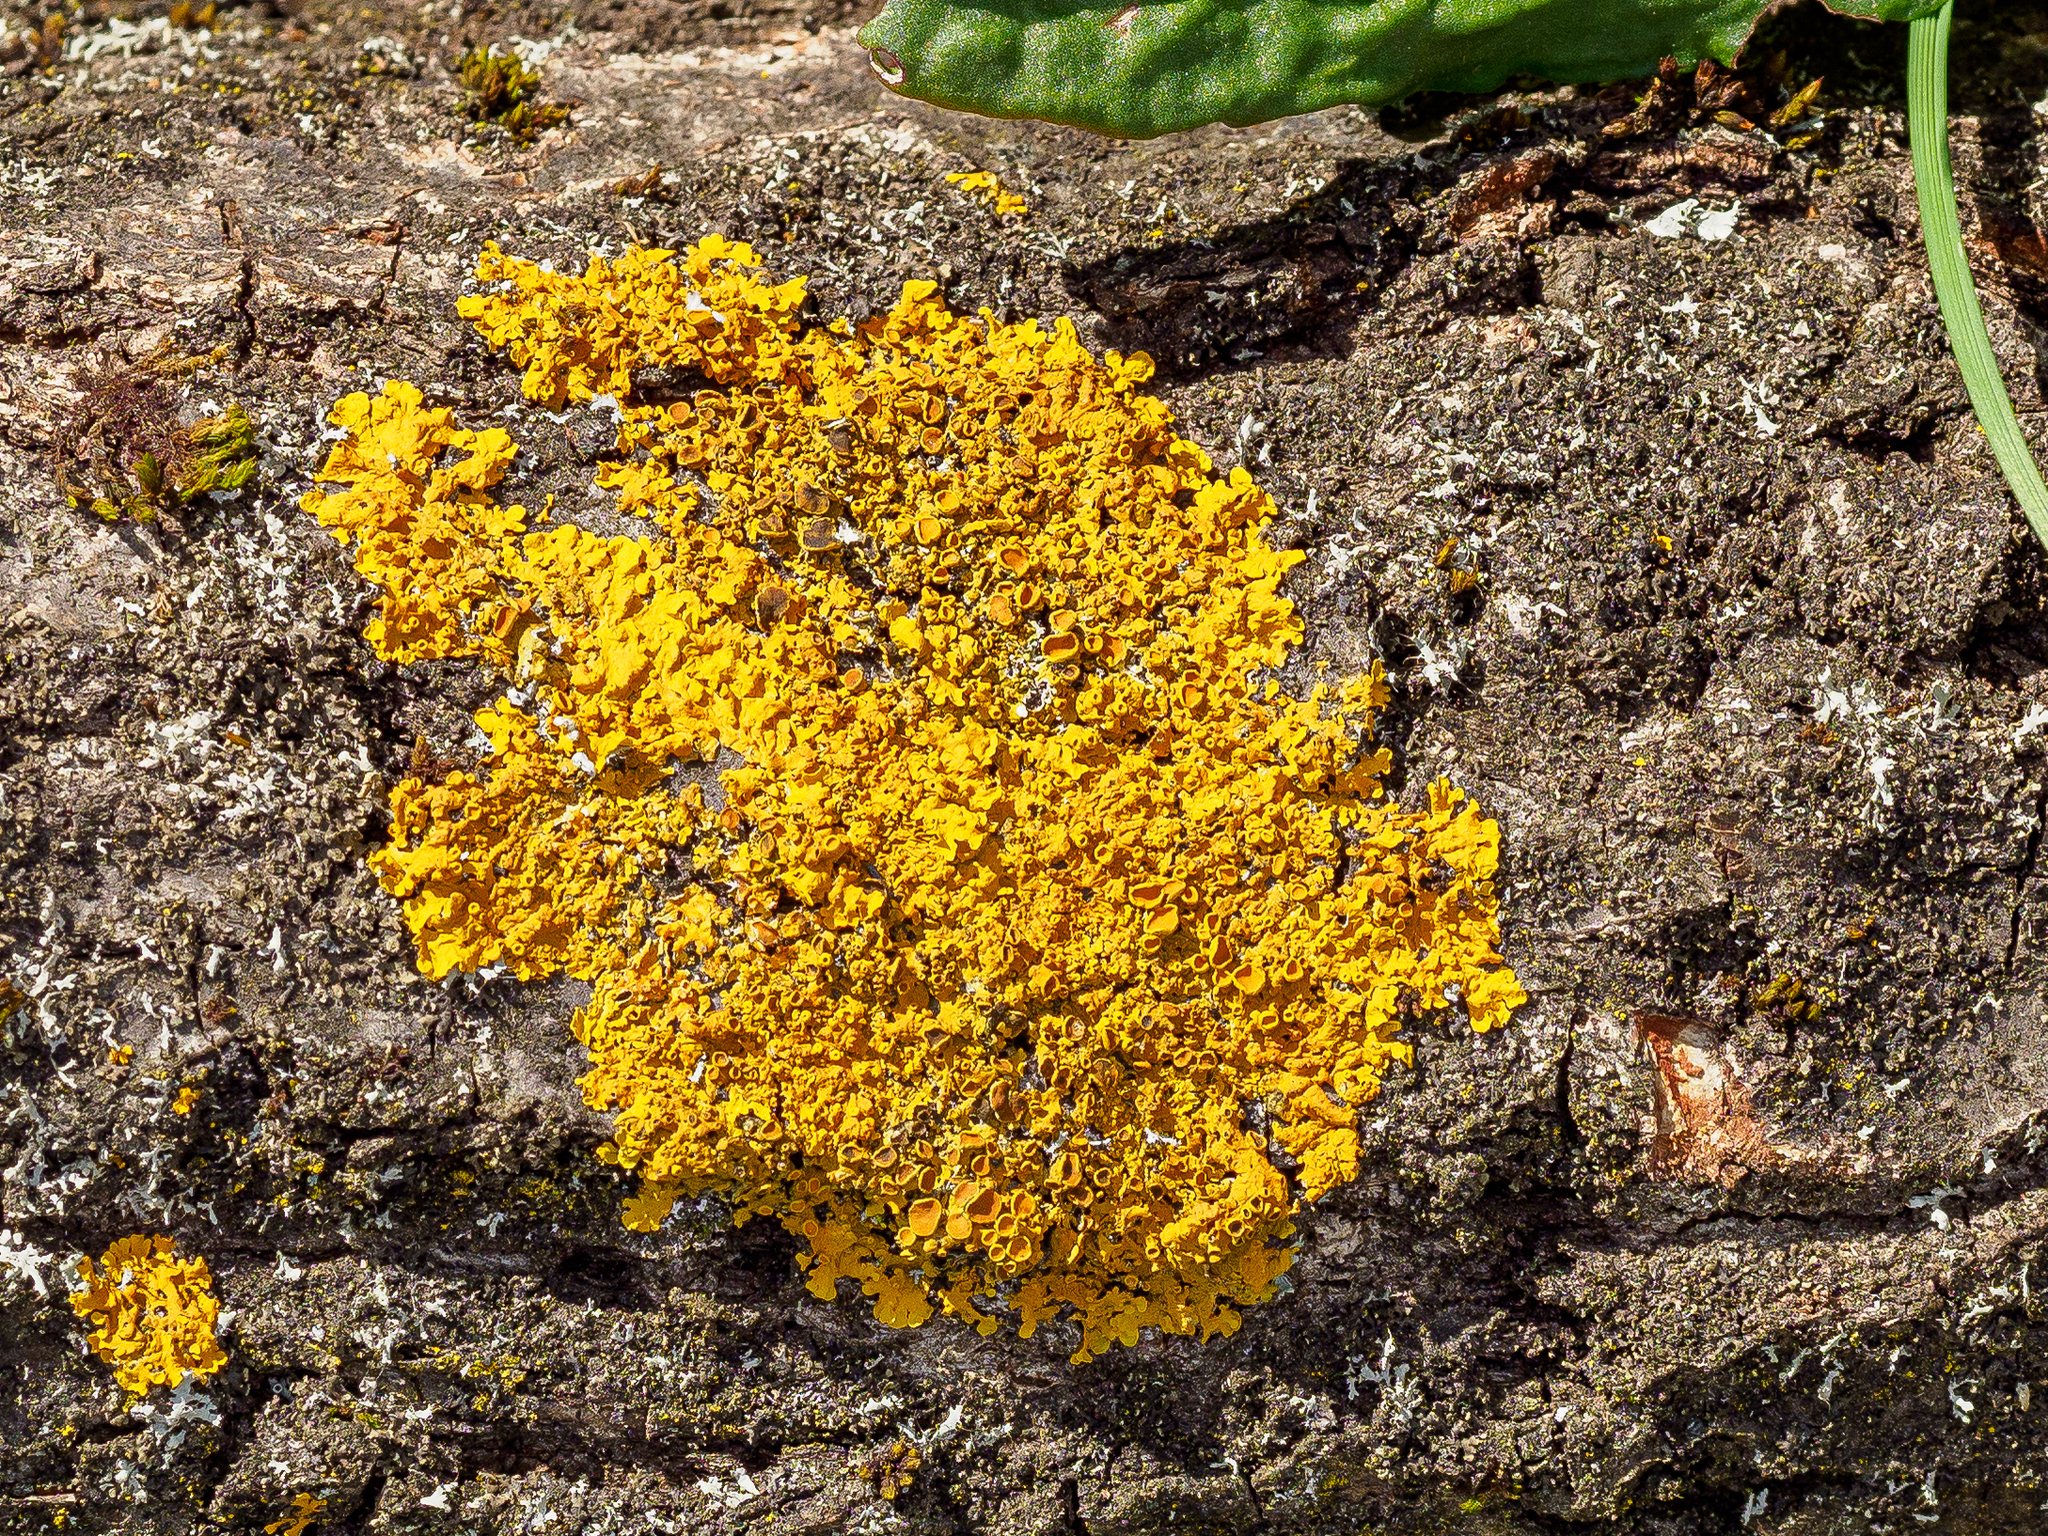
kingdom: Fungi
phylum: Ascomycota
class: Lecanoromycetes
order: Teloschistales
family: Teloschistaceae
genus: Xanthoria
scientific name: Xanthoria parietina
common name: Common orange lichen
